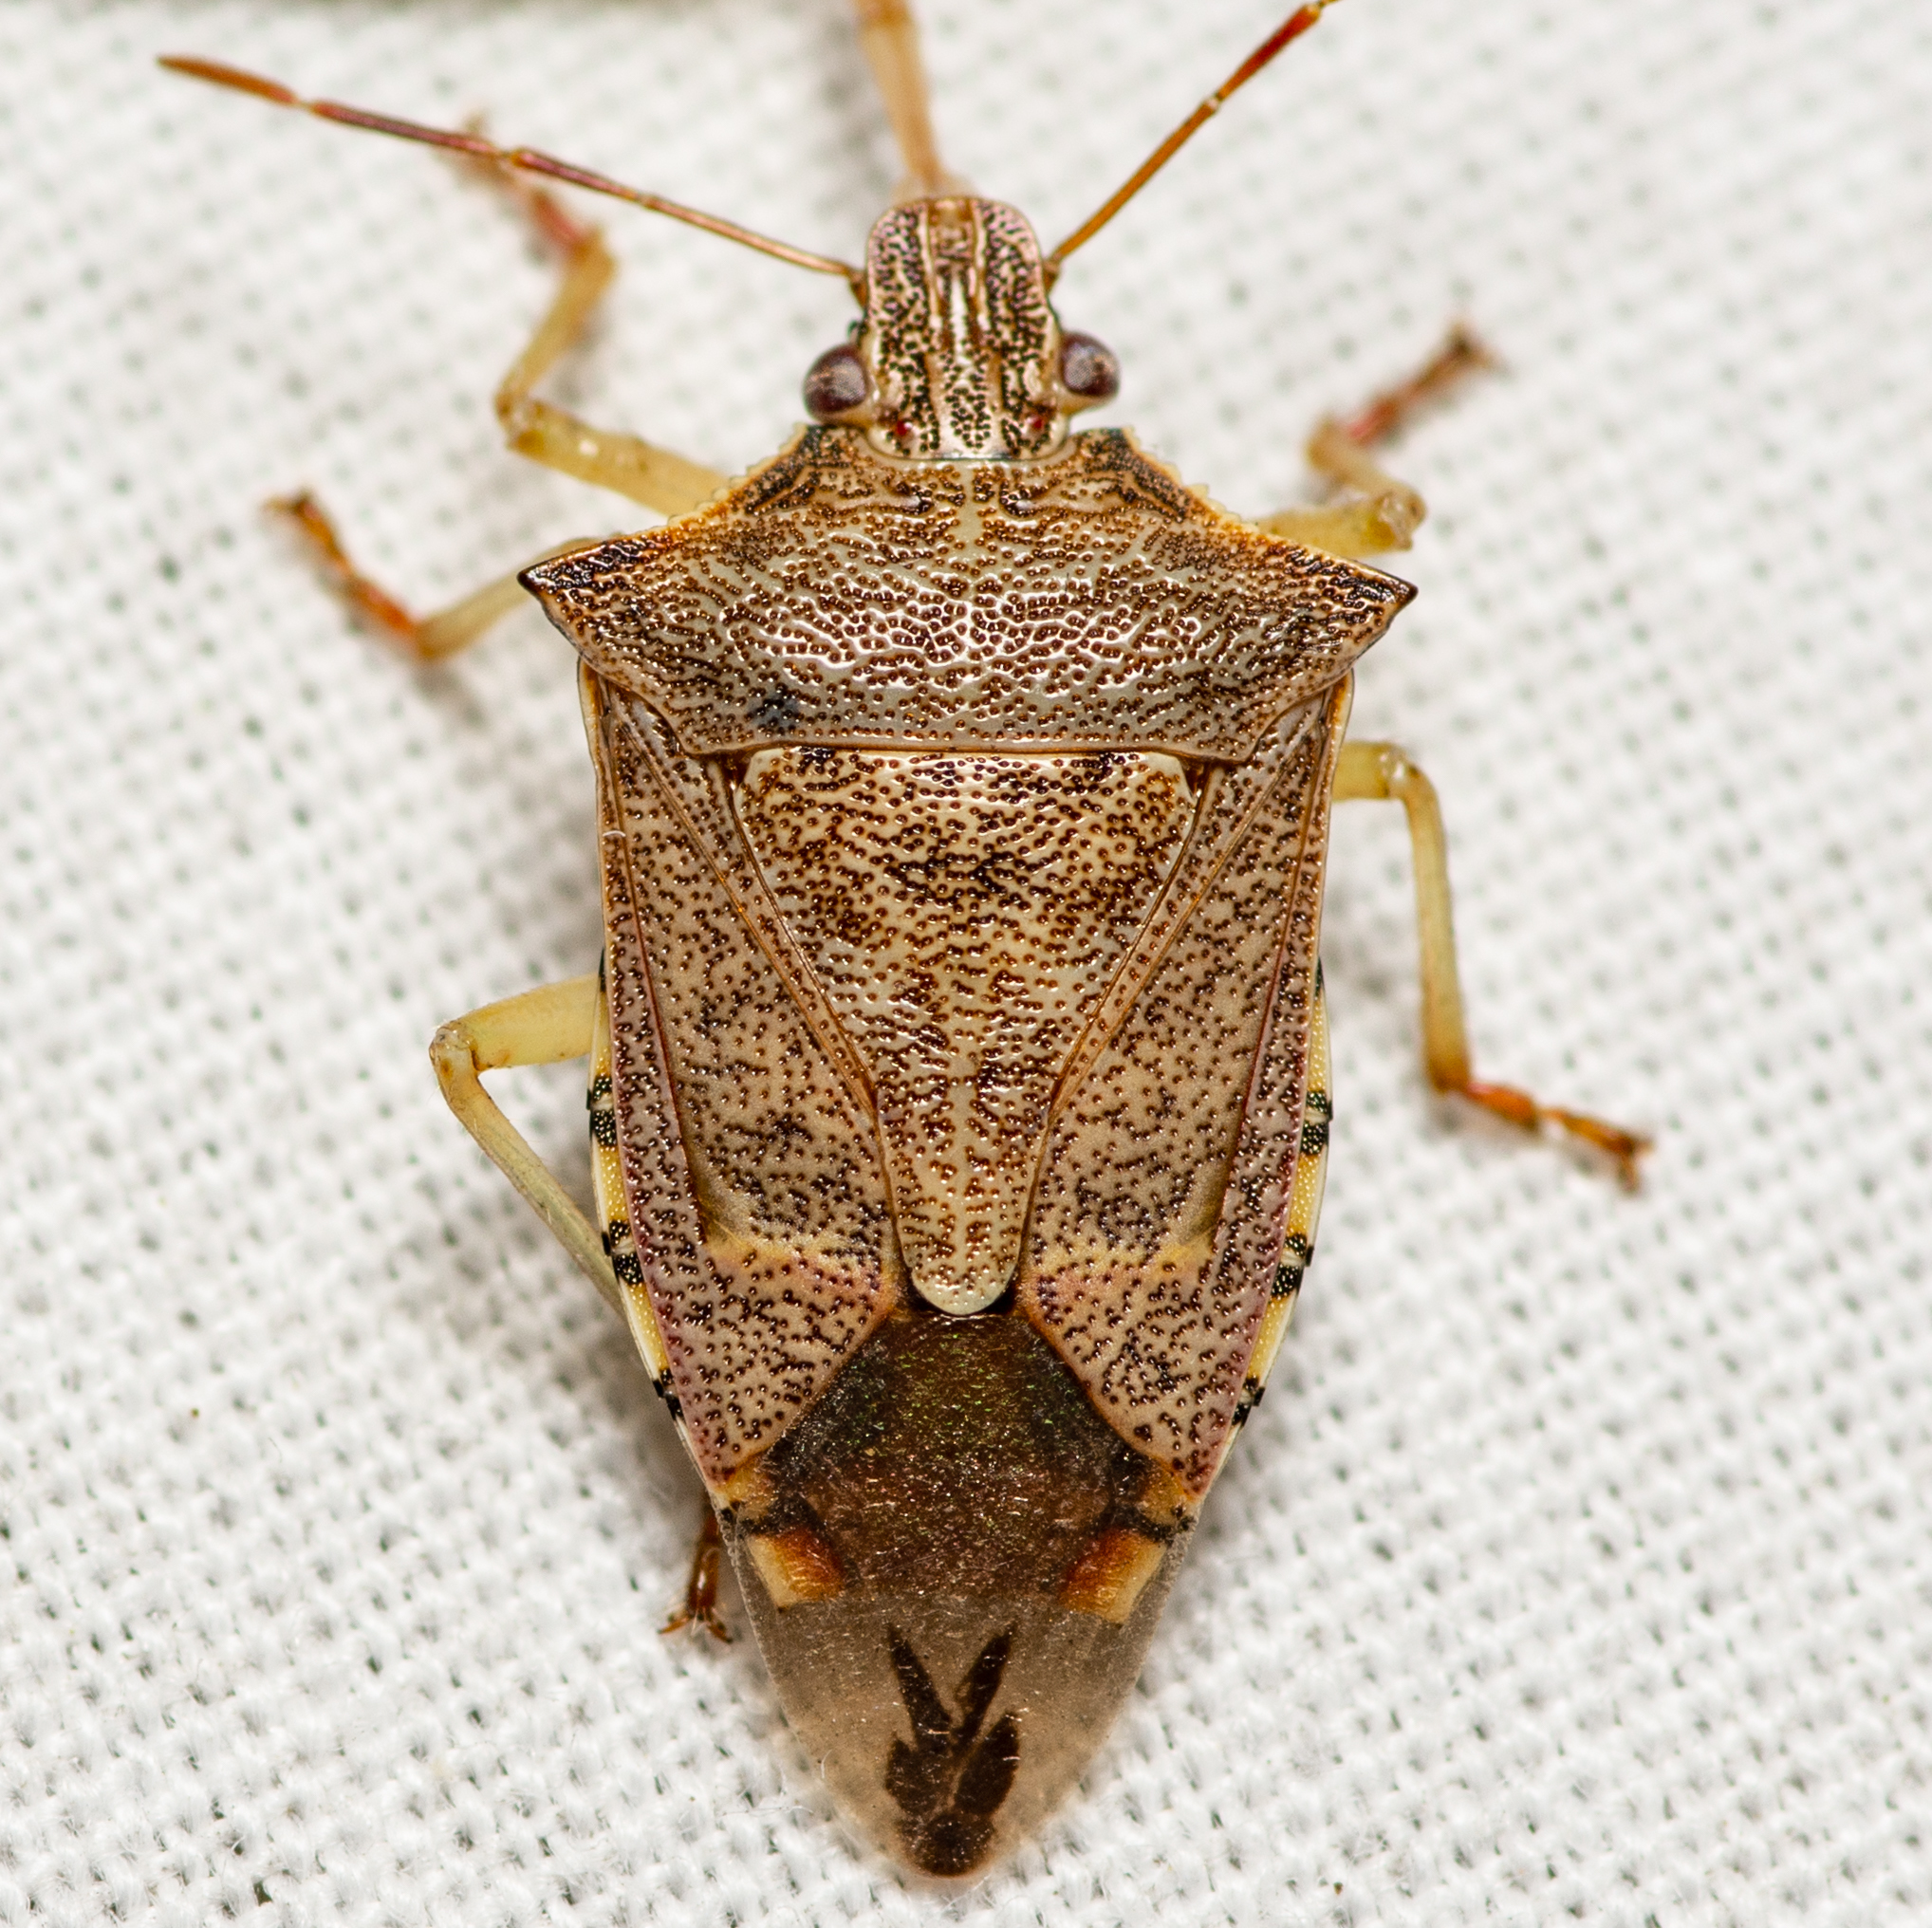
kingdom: Animalia
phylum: Arthropoda
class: Insecta
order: Hemiptera
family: Pentatomidae
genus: Podisus
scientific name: Podisus maculiventris
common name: Spined soldier bug
